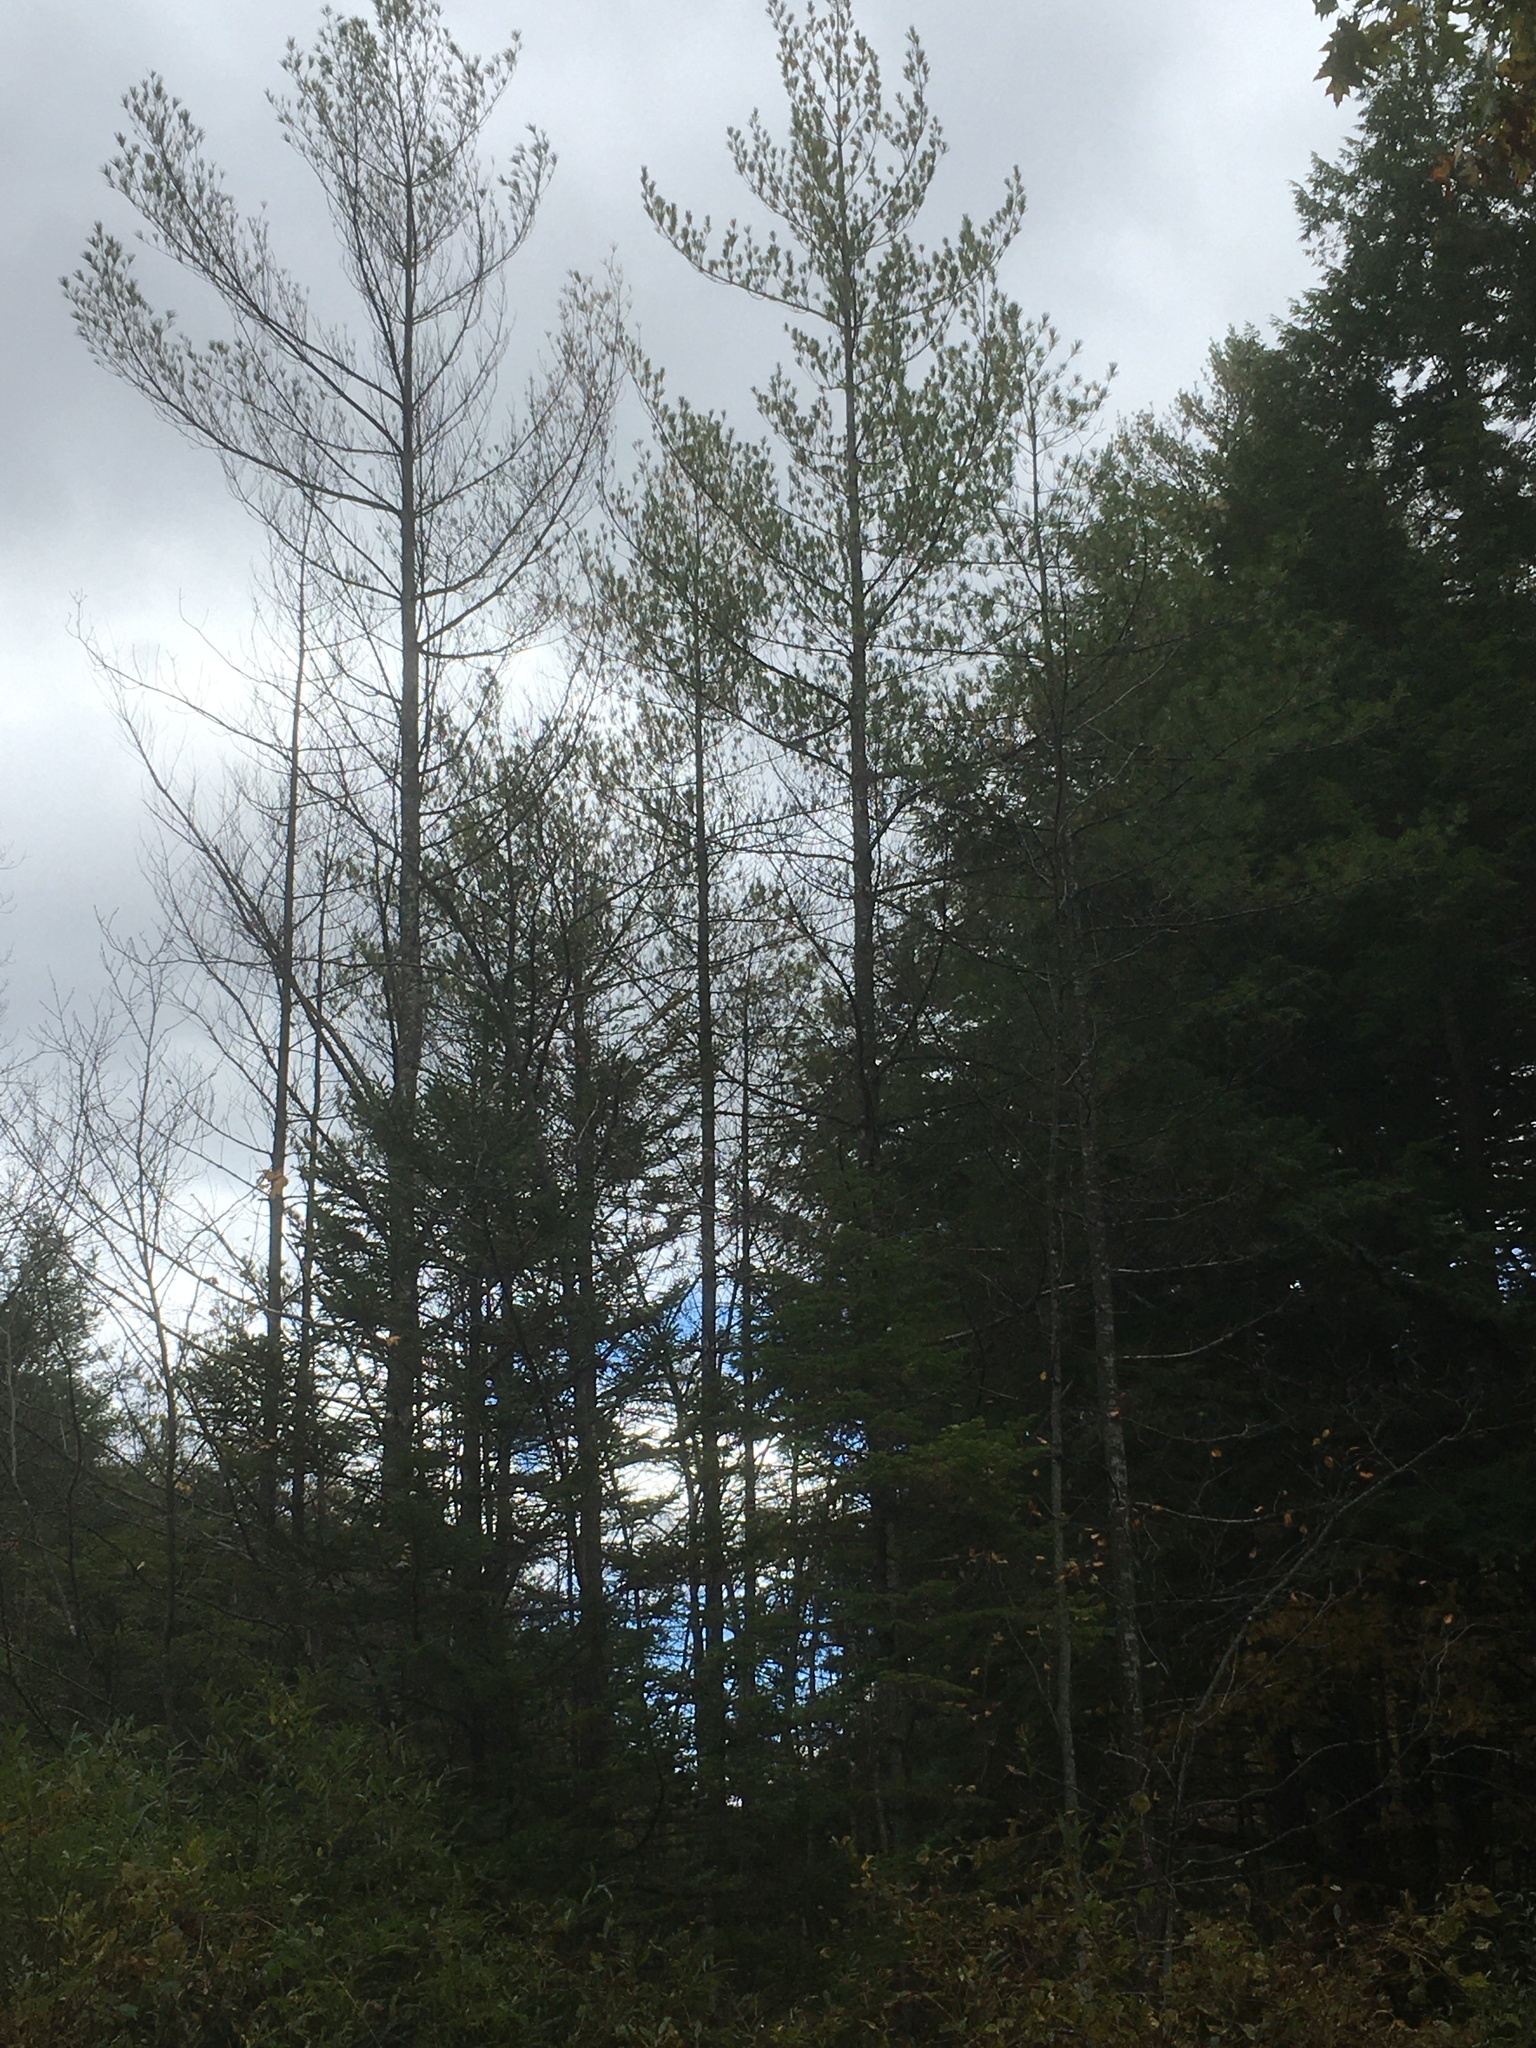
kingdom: Plantae
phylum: Tracheophyta
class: Pinopsida
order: Pinales
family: Pinaceae
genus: Pinus
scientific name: Pinus strobus
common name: Weymouth pine
